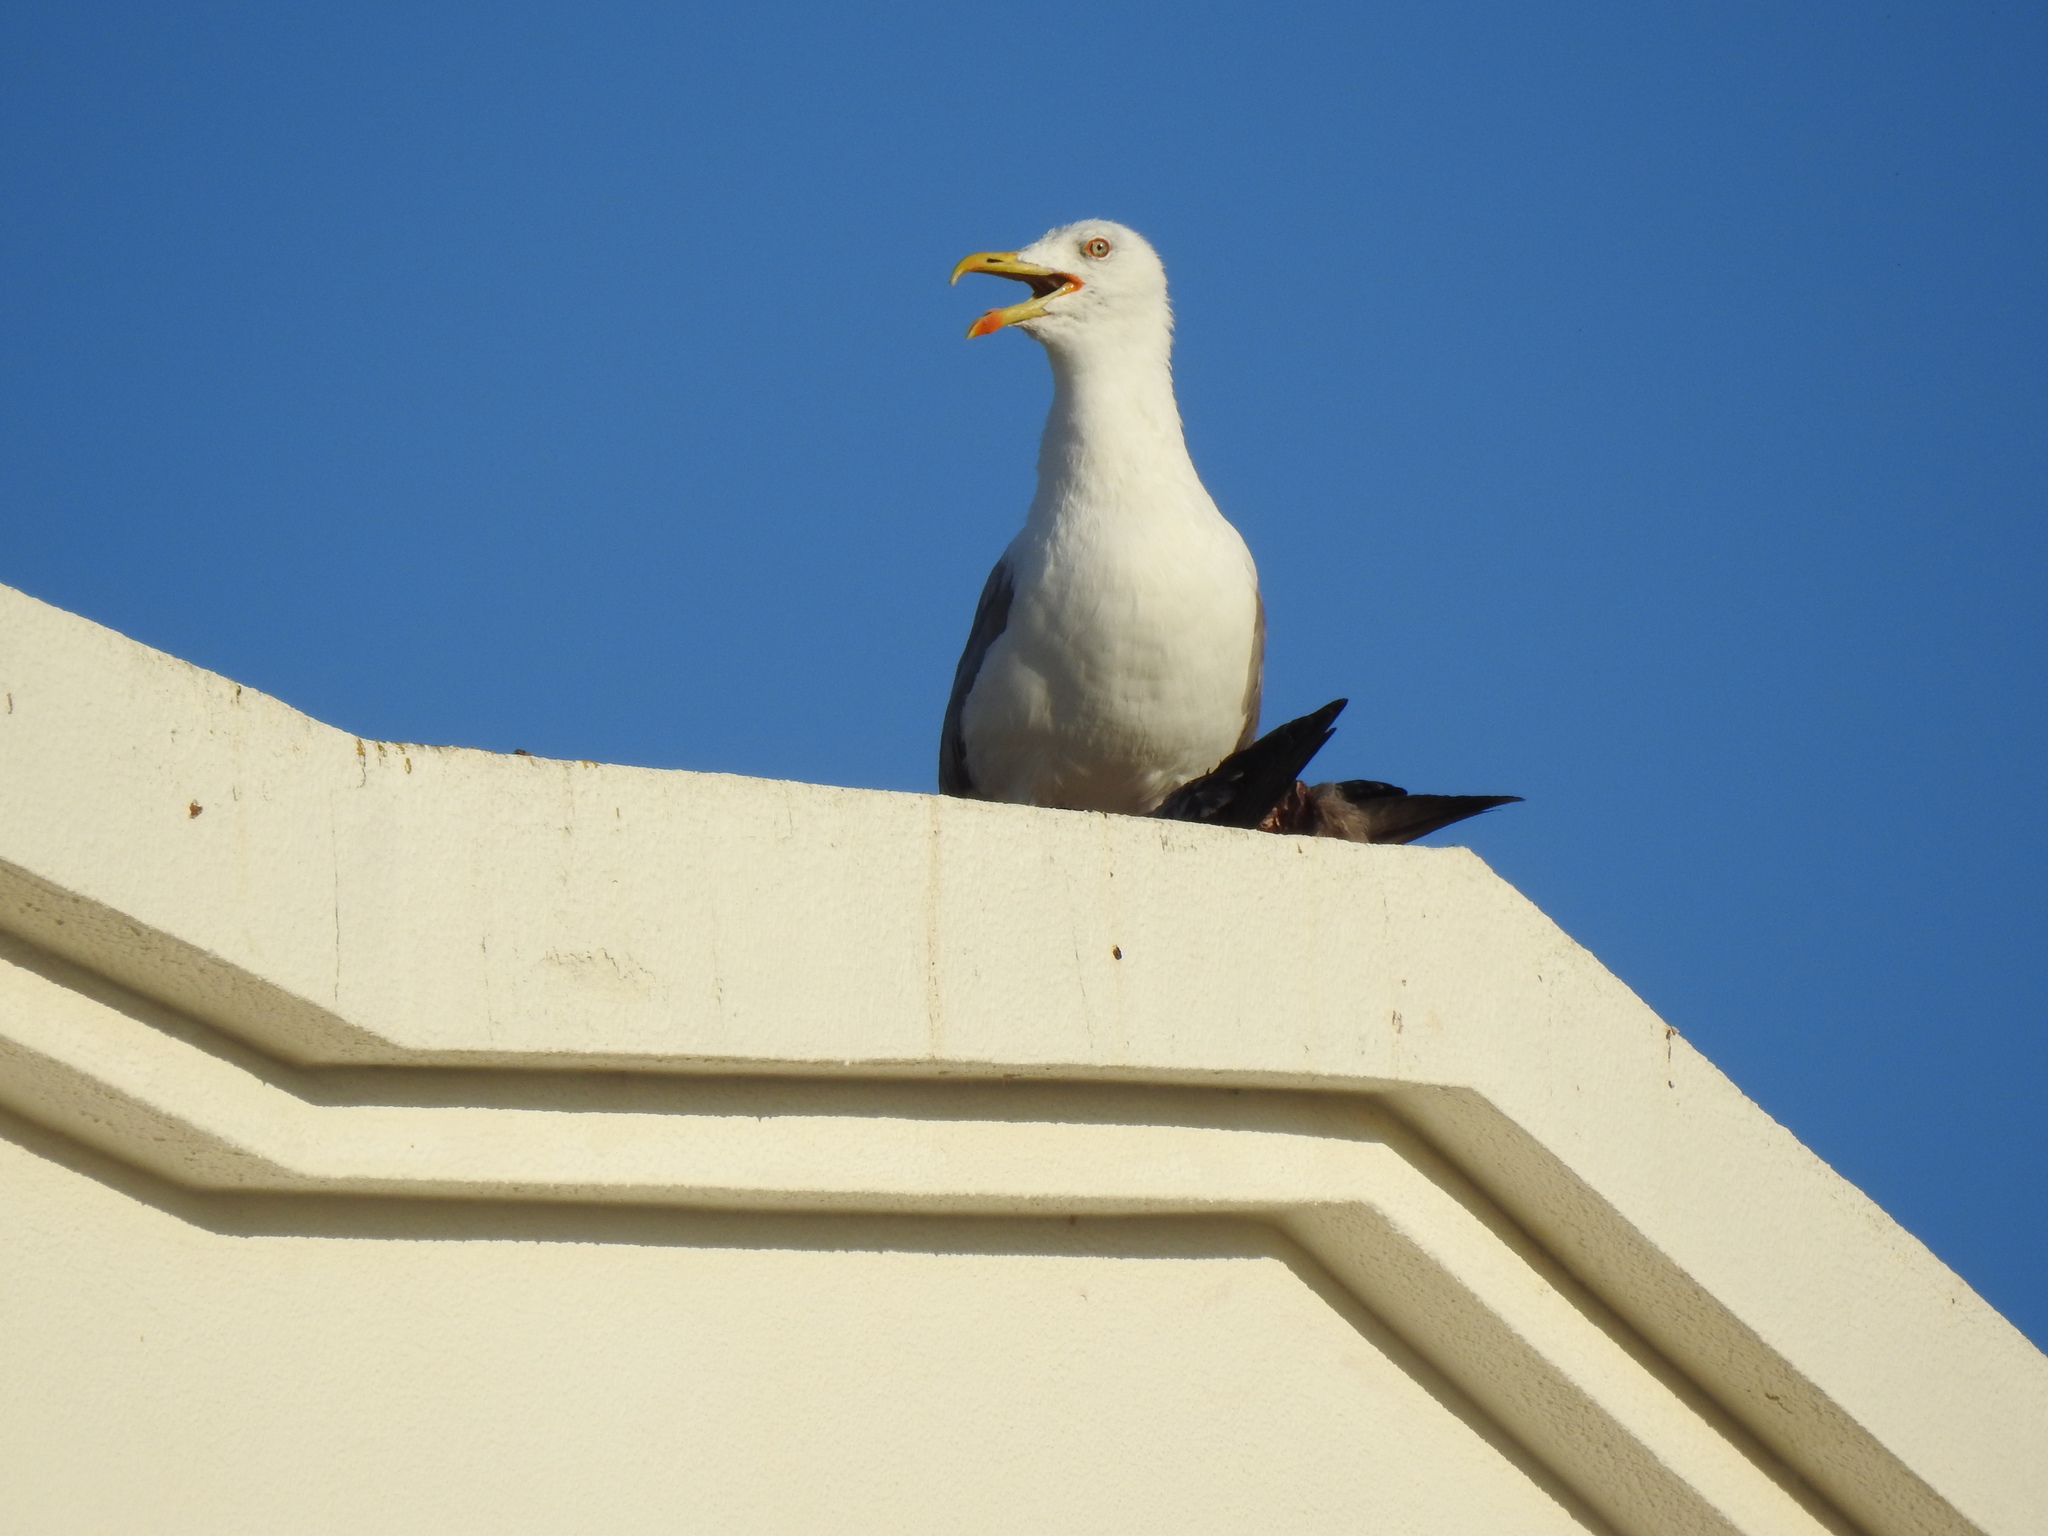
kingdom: Animalia
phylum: Chordata
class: Aves
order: Charadriiformes
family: Laridae
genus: Larus
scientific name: Larus michahellis
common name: Yellow-legged gull
